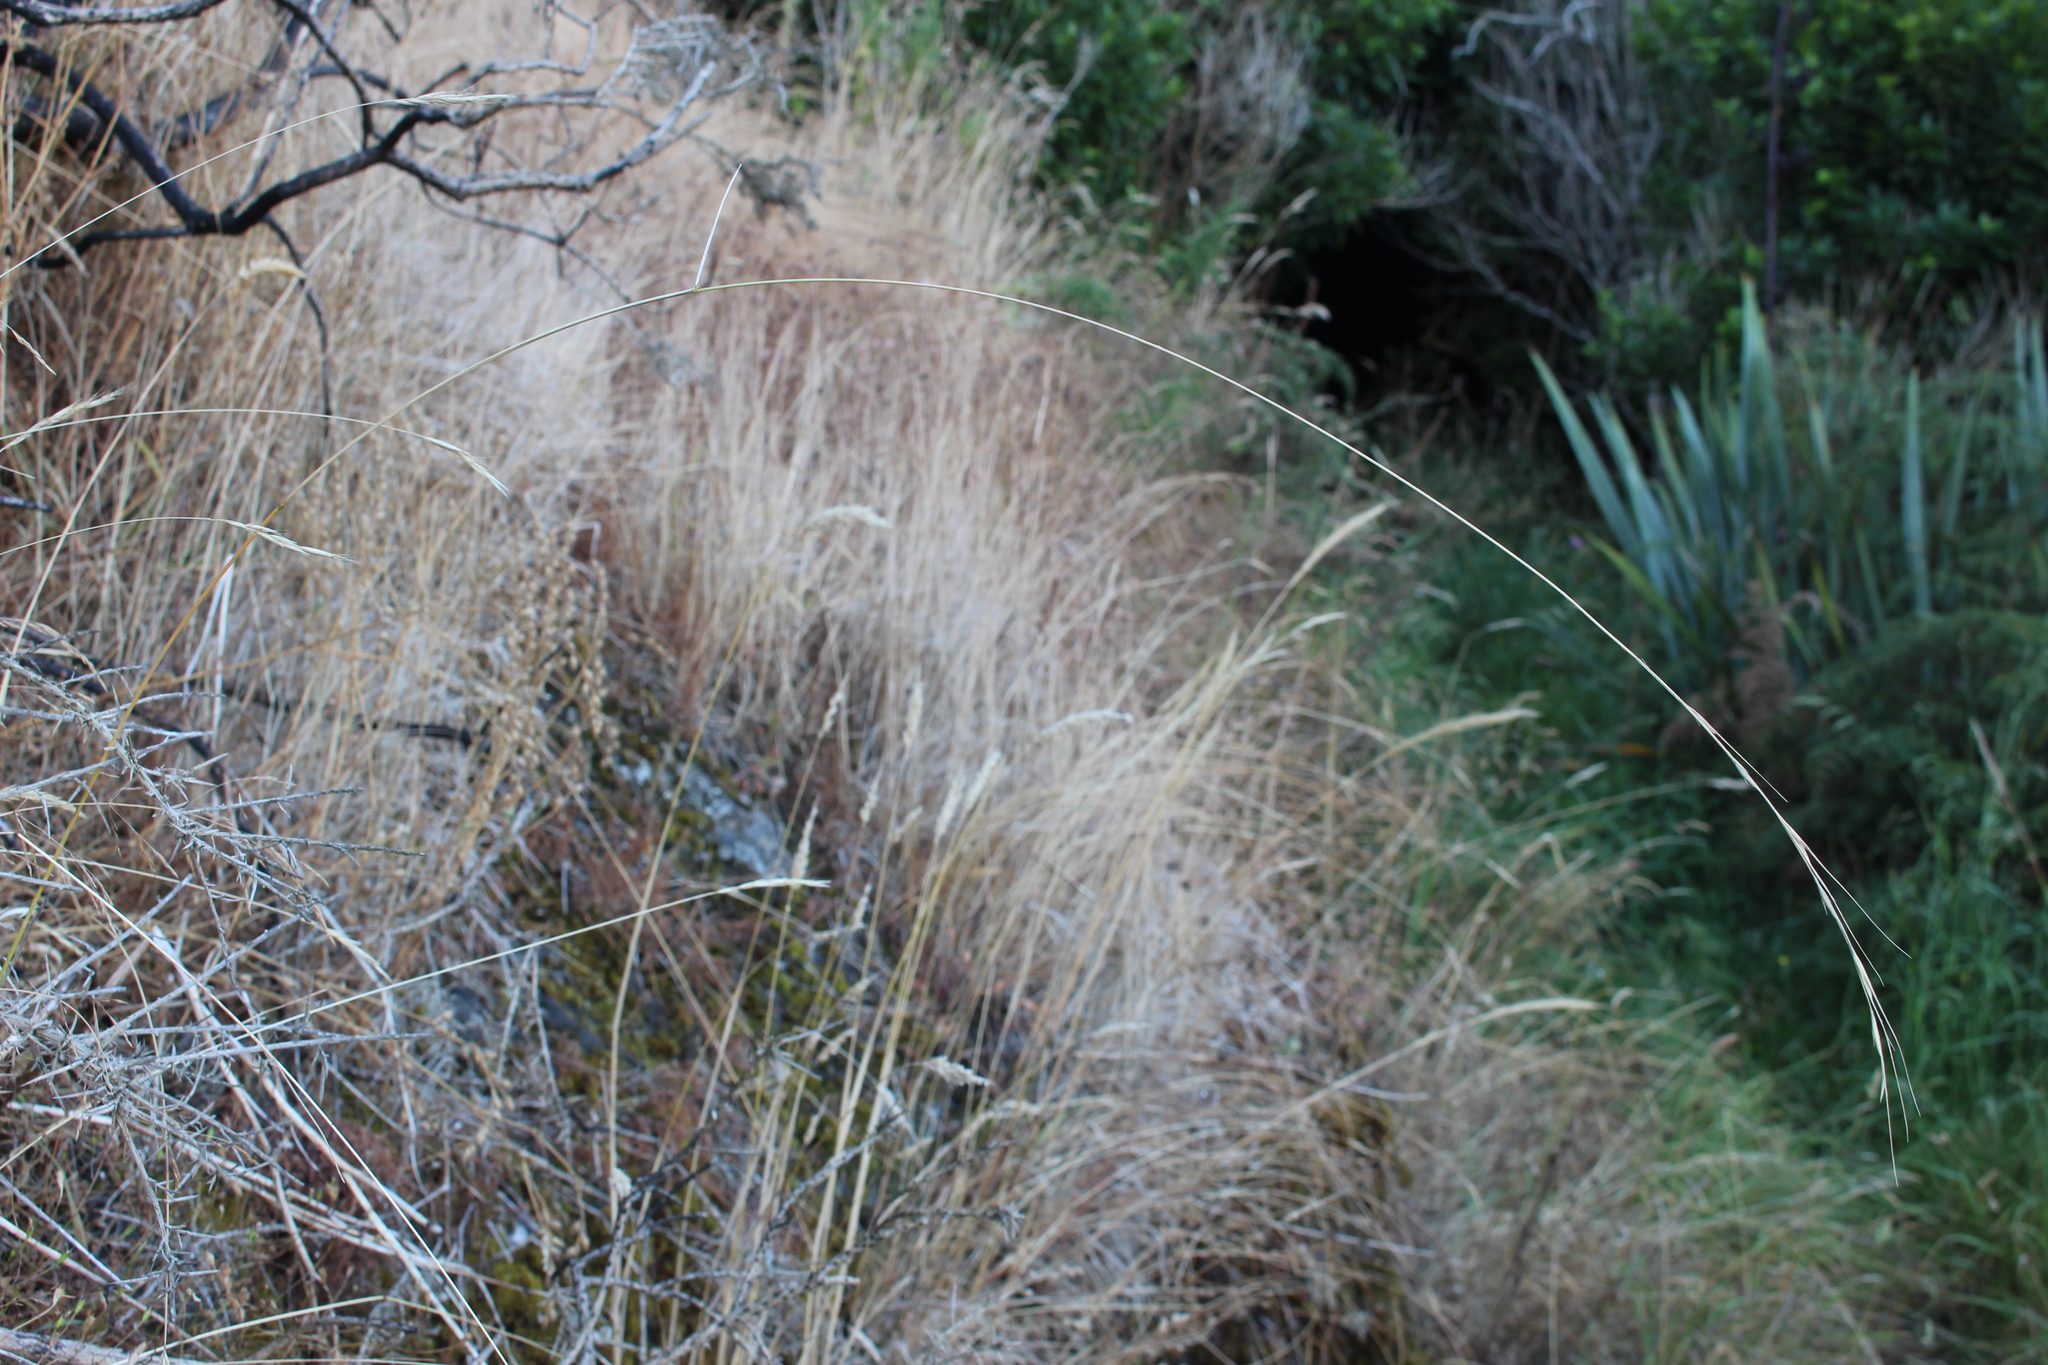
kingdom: Plantae
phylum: Tracheophyta
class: Liliopsida
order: Poales
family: Poaceae
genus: Anthosachne
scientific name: Anthosachne scabra
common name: Common wheatgrass
